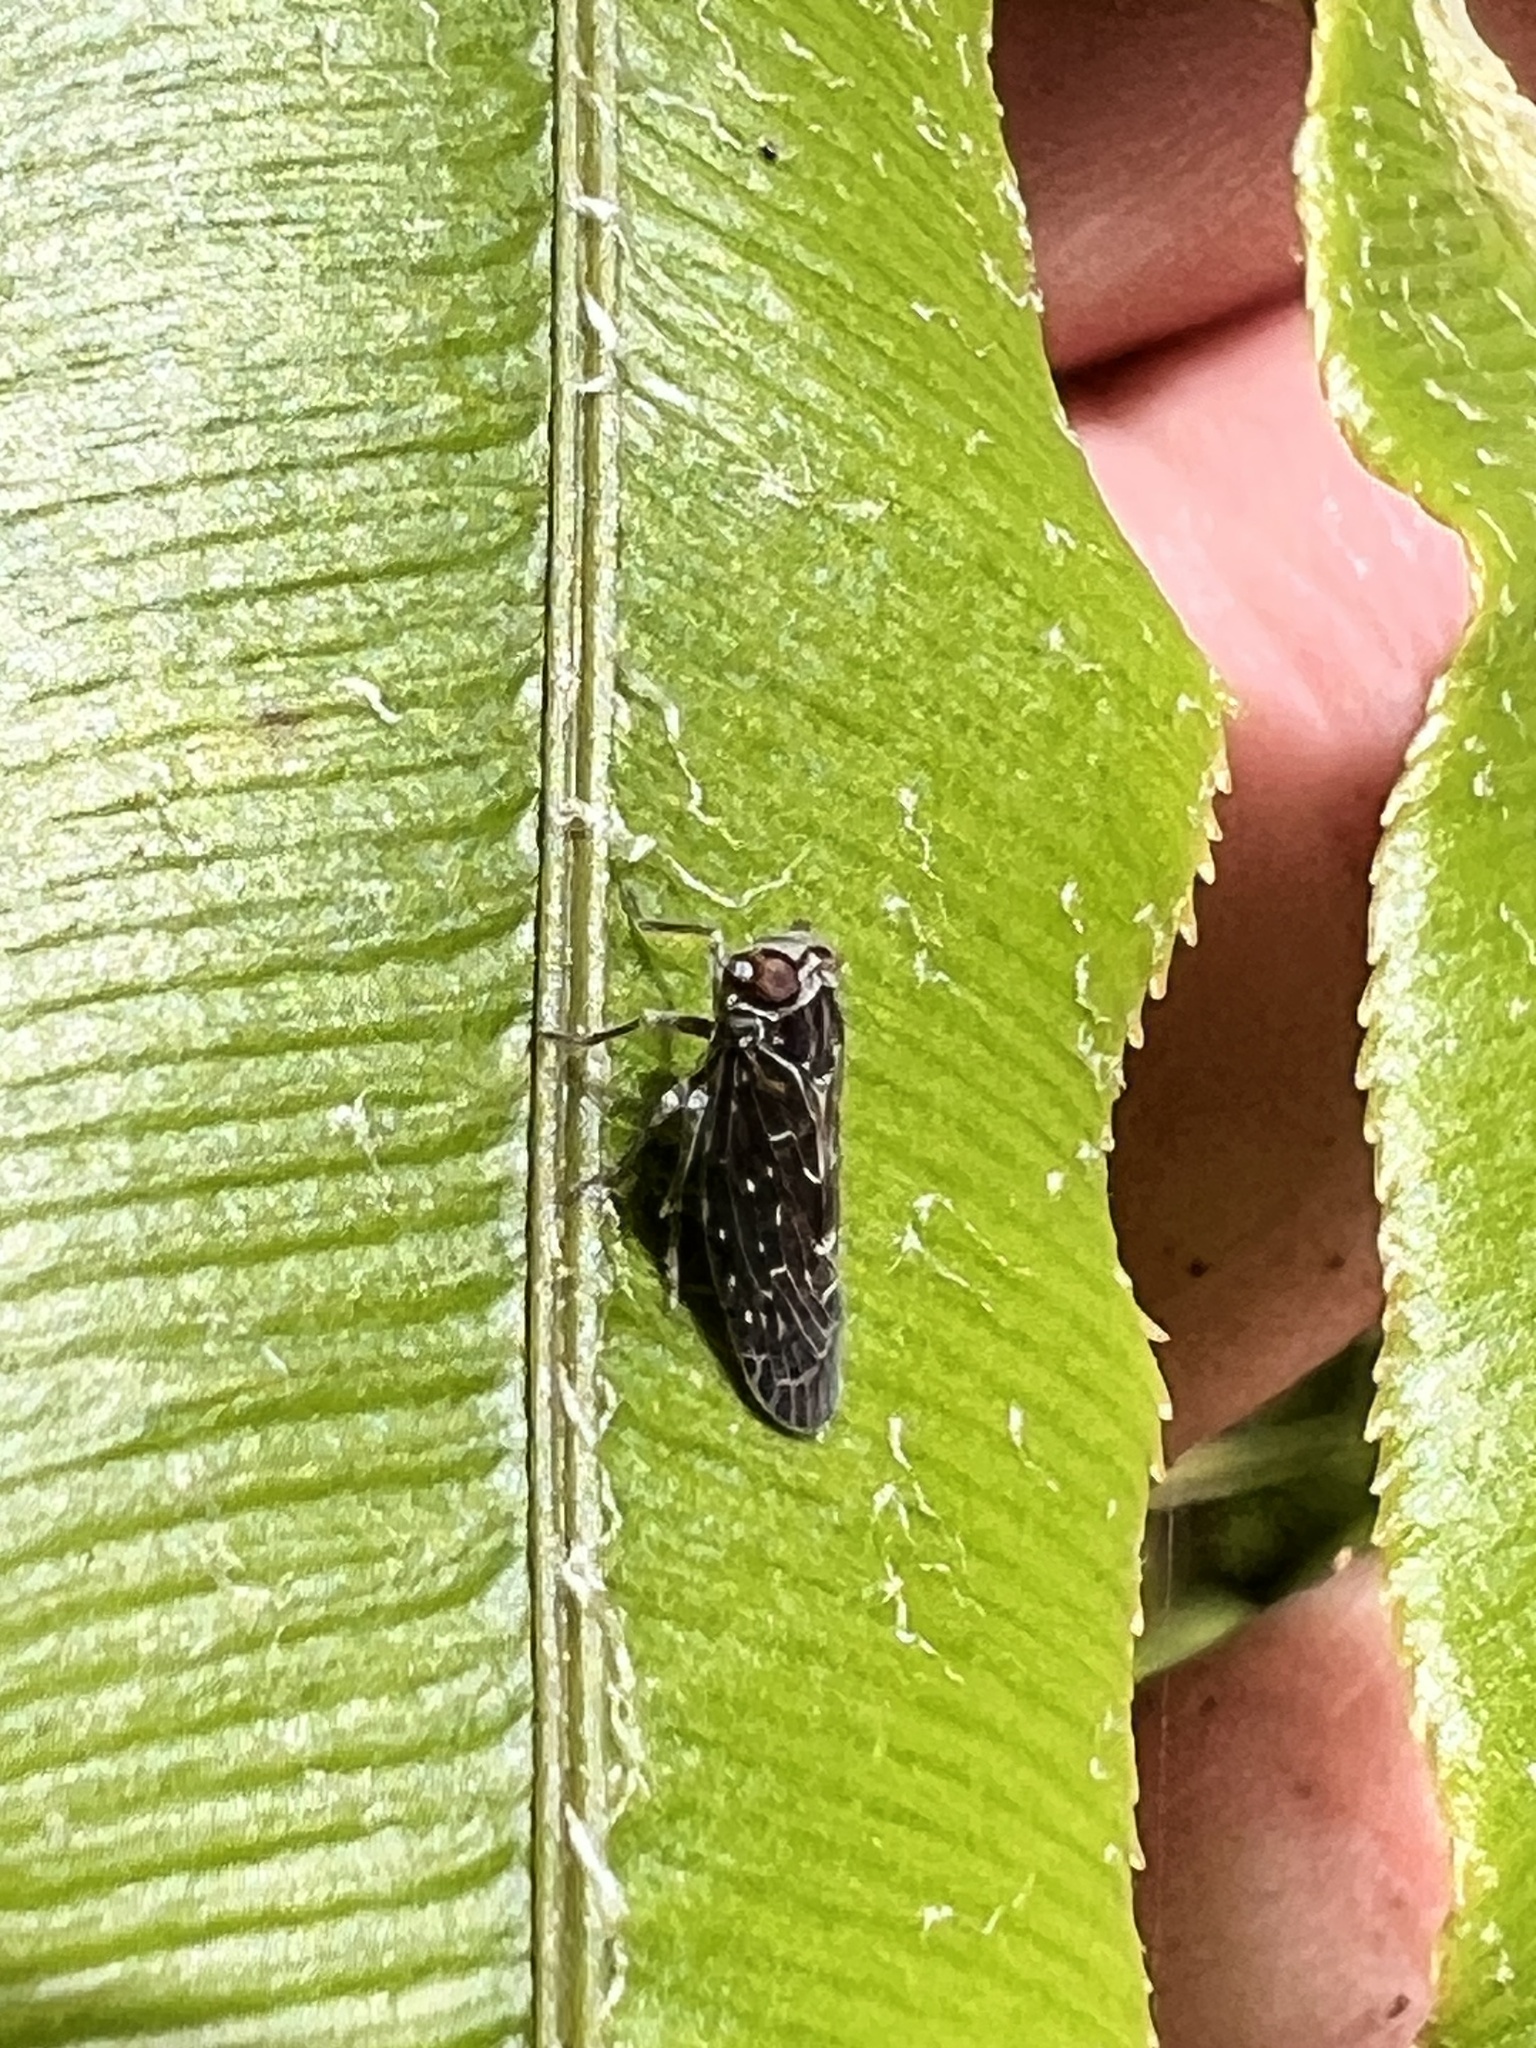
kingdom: Animalia
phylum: Arthropoda
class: Insecta
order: Hemiptera
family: Achilidae
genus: Agandecca
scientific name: Agandecca annectens
